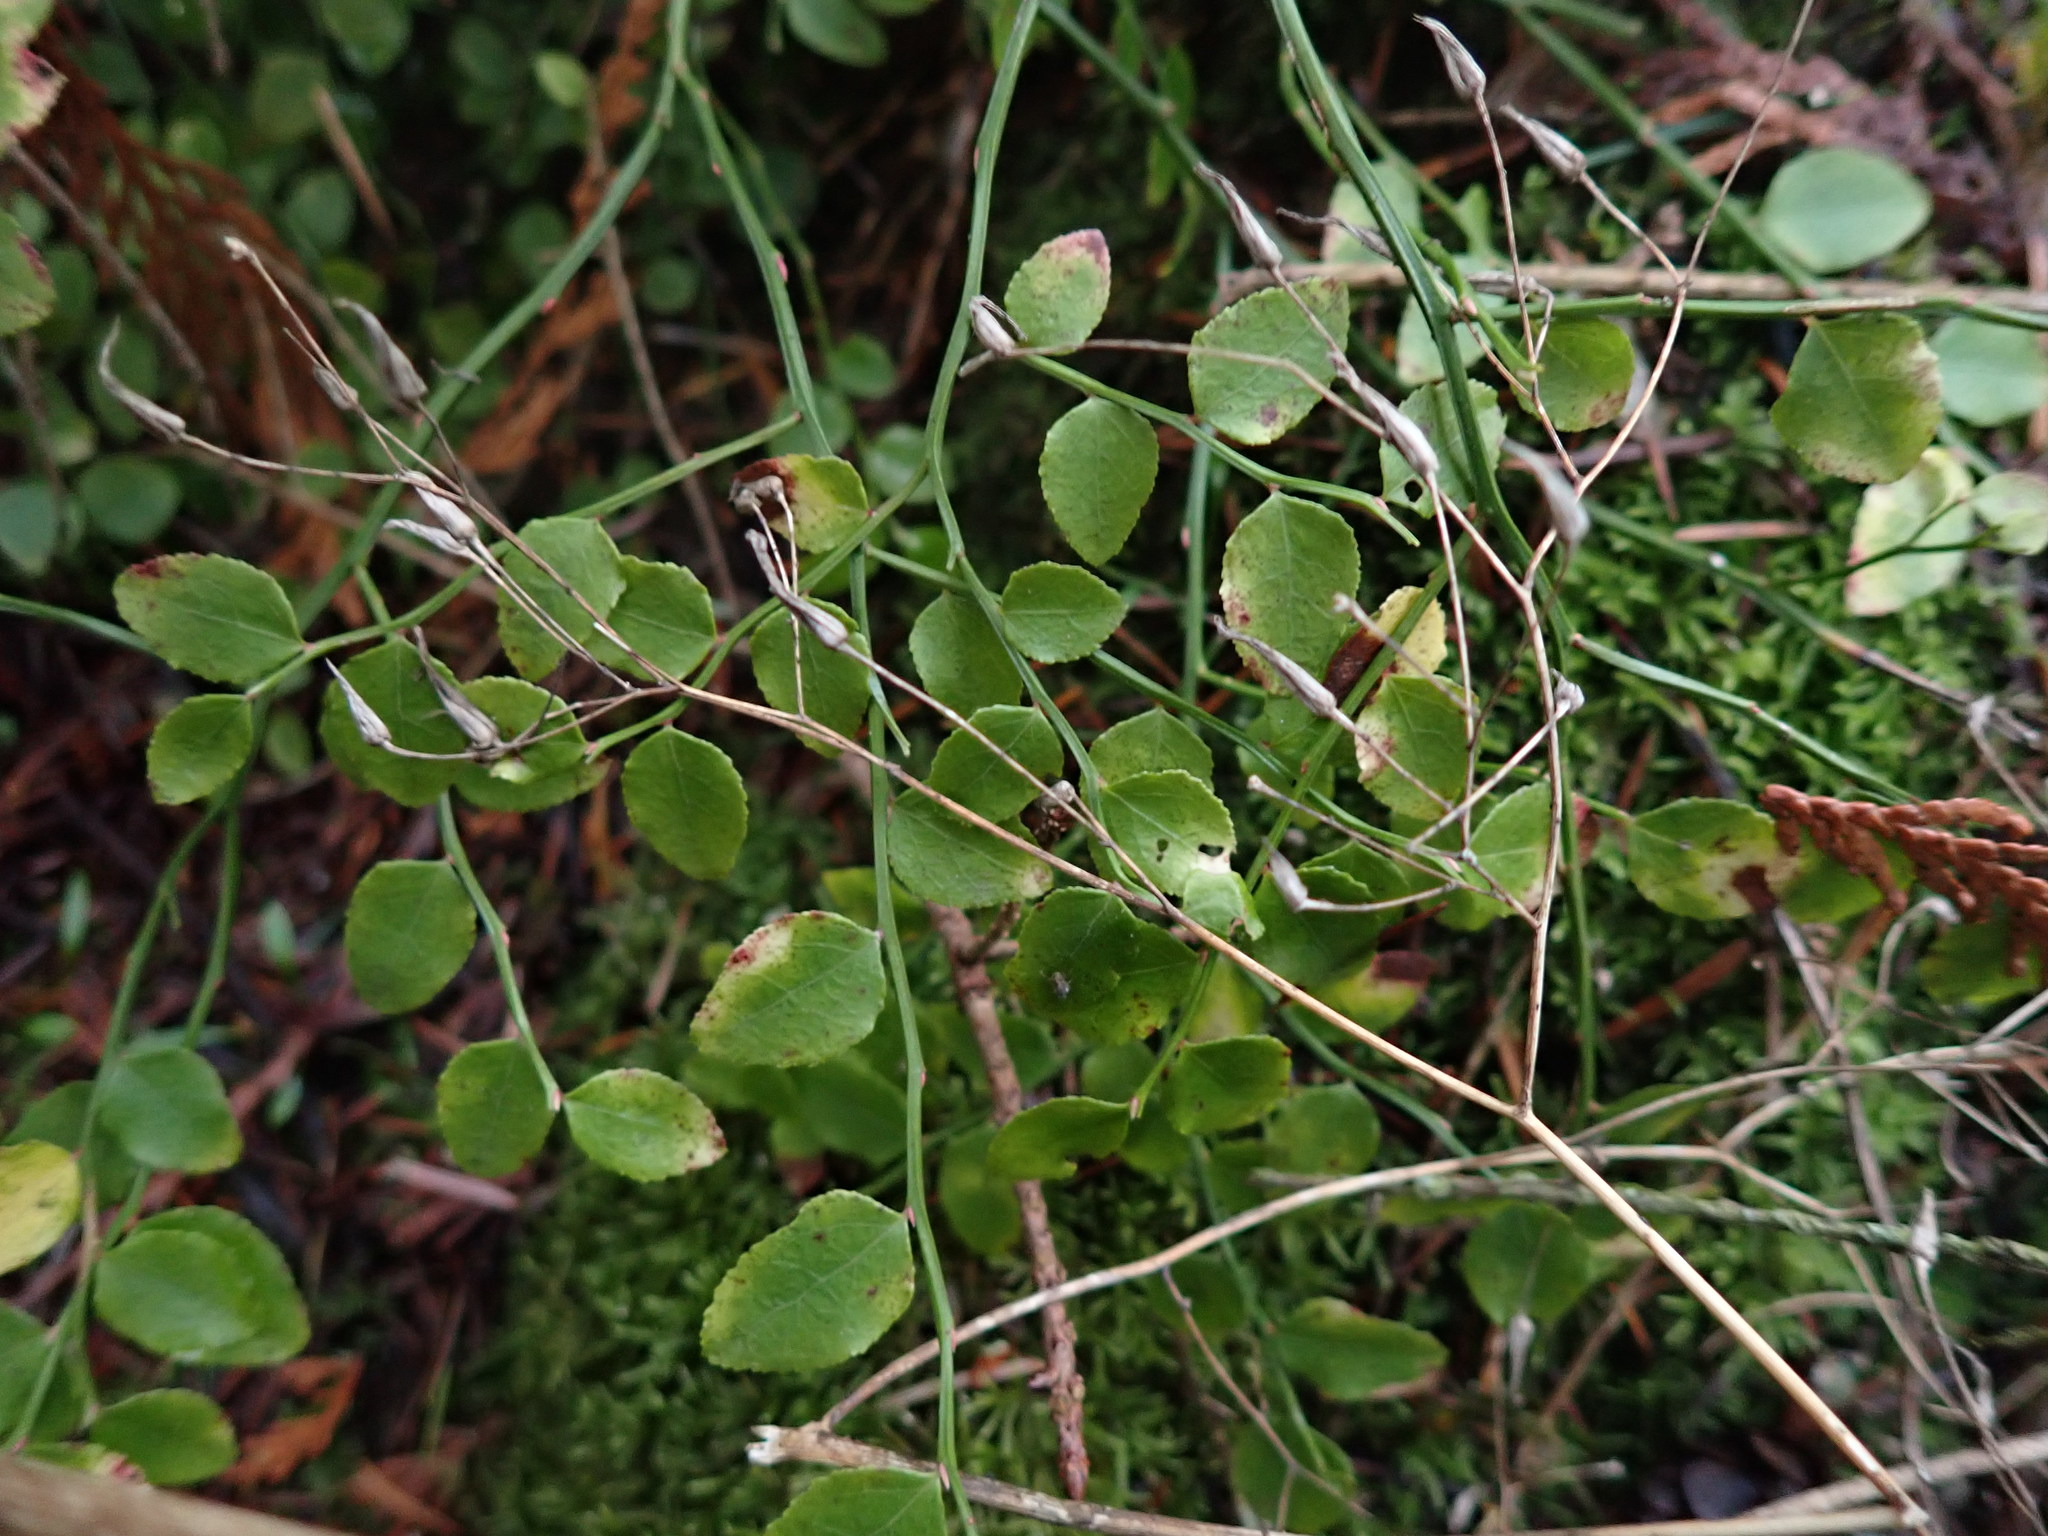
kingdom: Plantae
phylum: Tracheophyta
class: Magnoliopsida
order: Ericales
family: Ericaceae
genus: Vaccinium
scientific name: Vaccinium parvifolium
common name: Red-huckleberry
